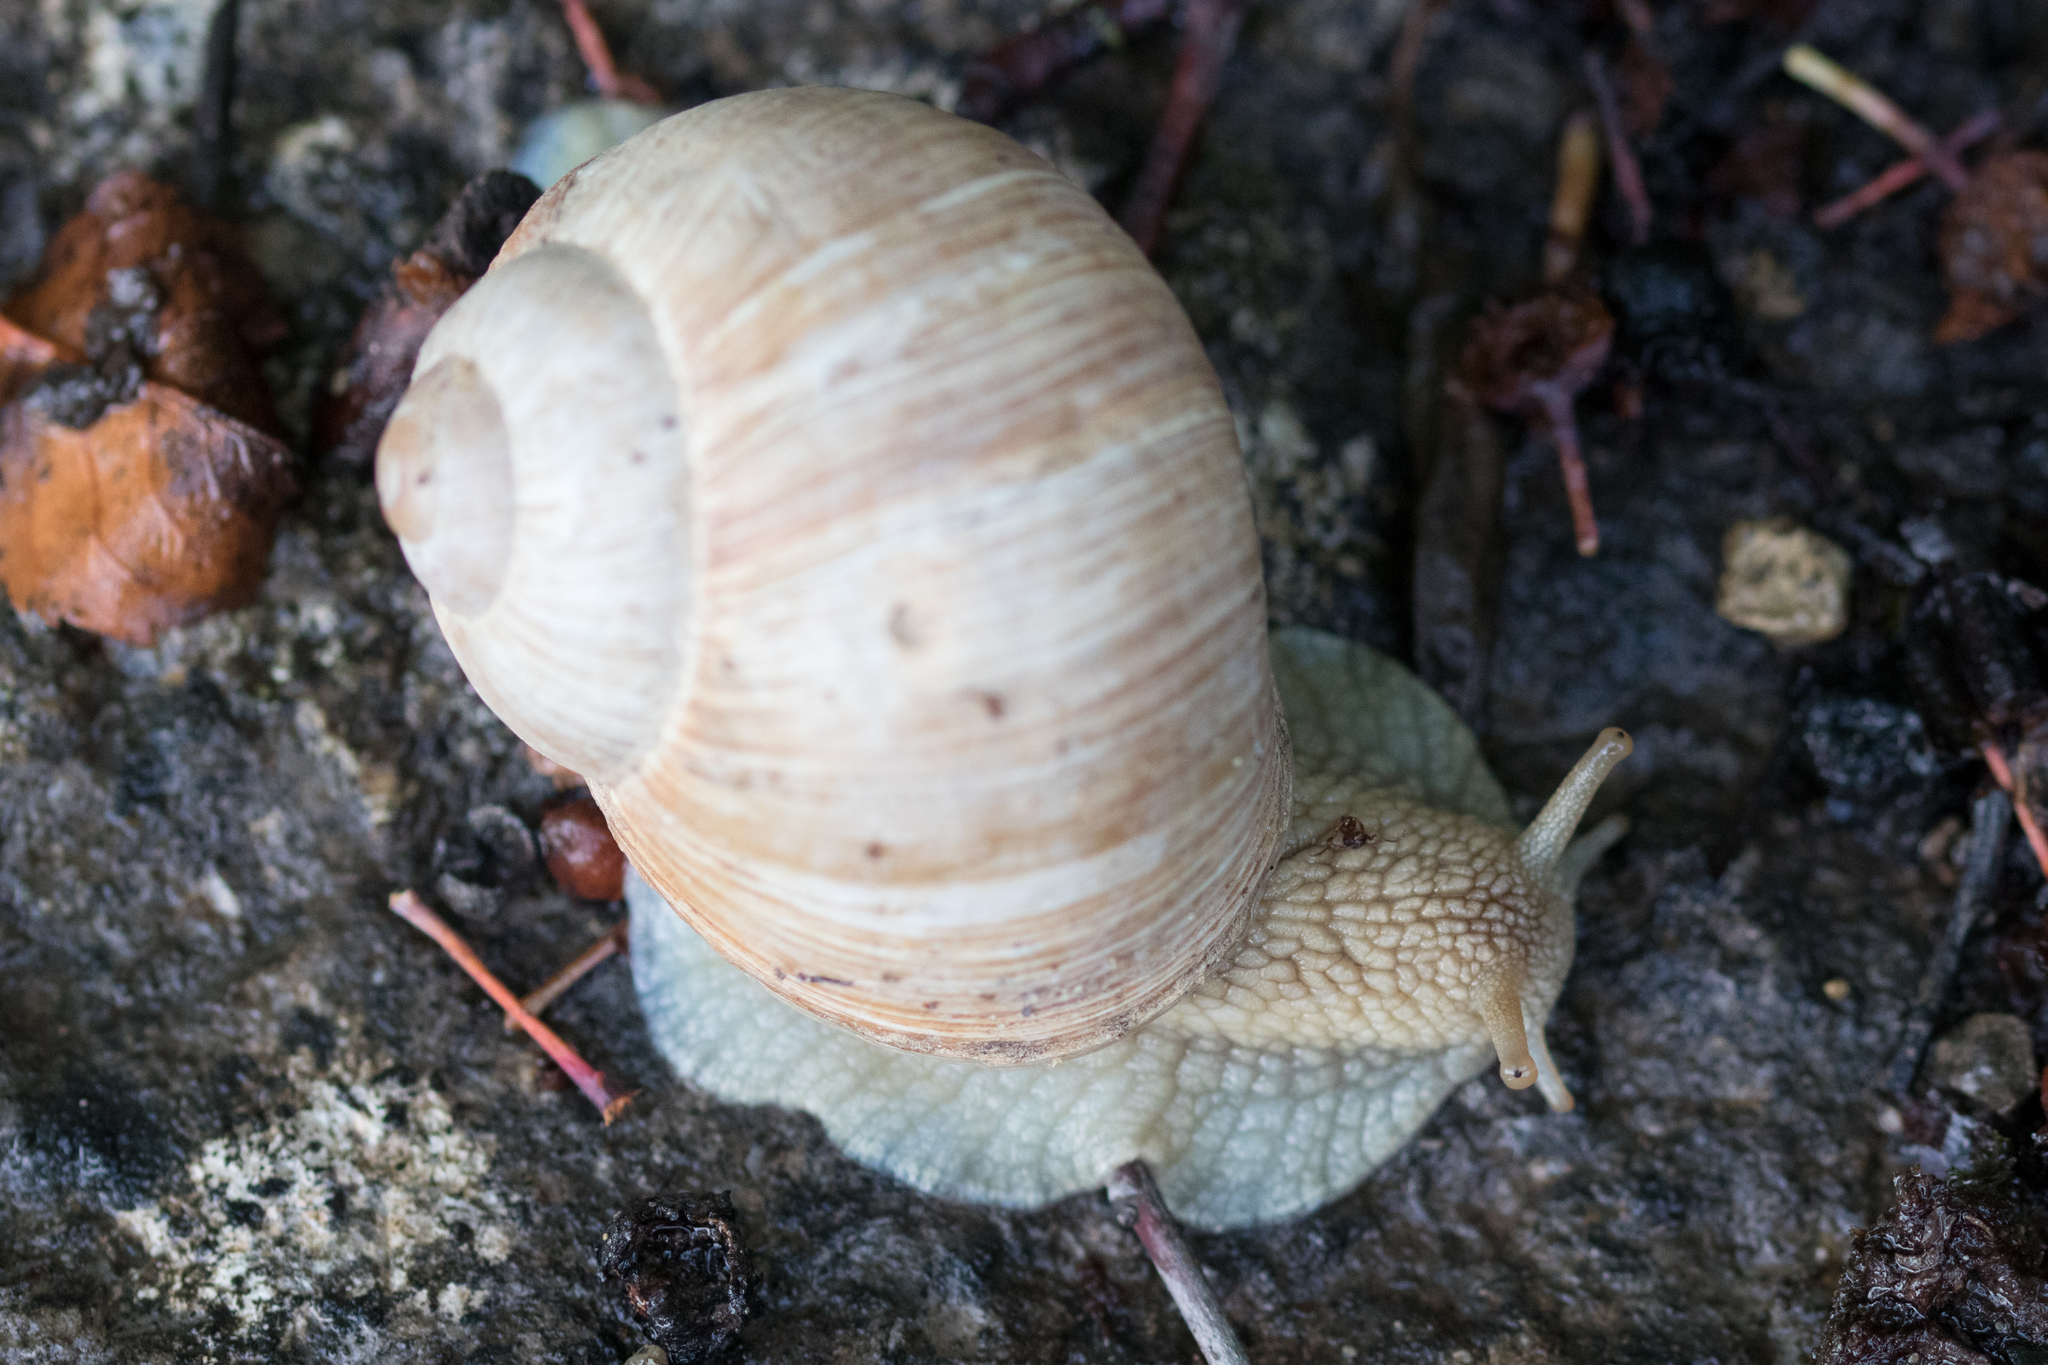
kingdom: Animalia
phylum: Mollusca
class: Gastropoda
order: Stylommatophora
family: Helicidae
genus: Helix
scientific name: Helix pomatia
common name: Roman snail
